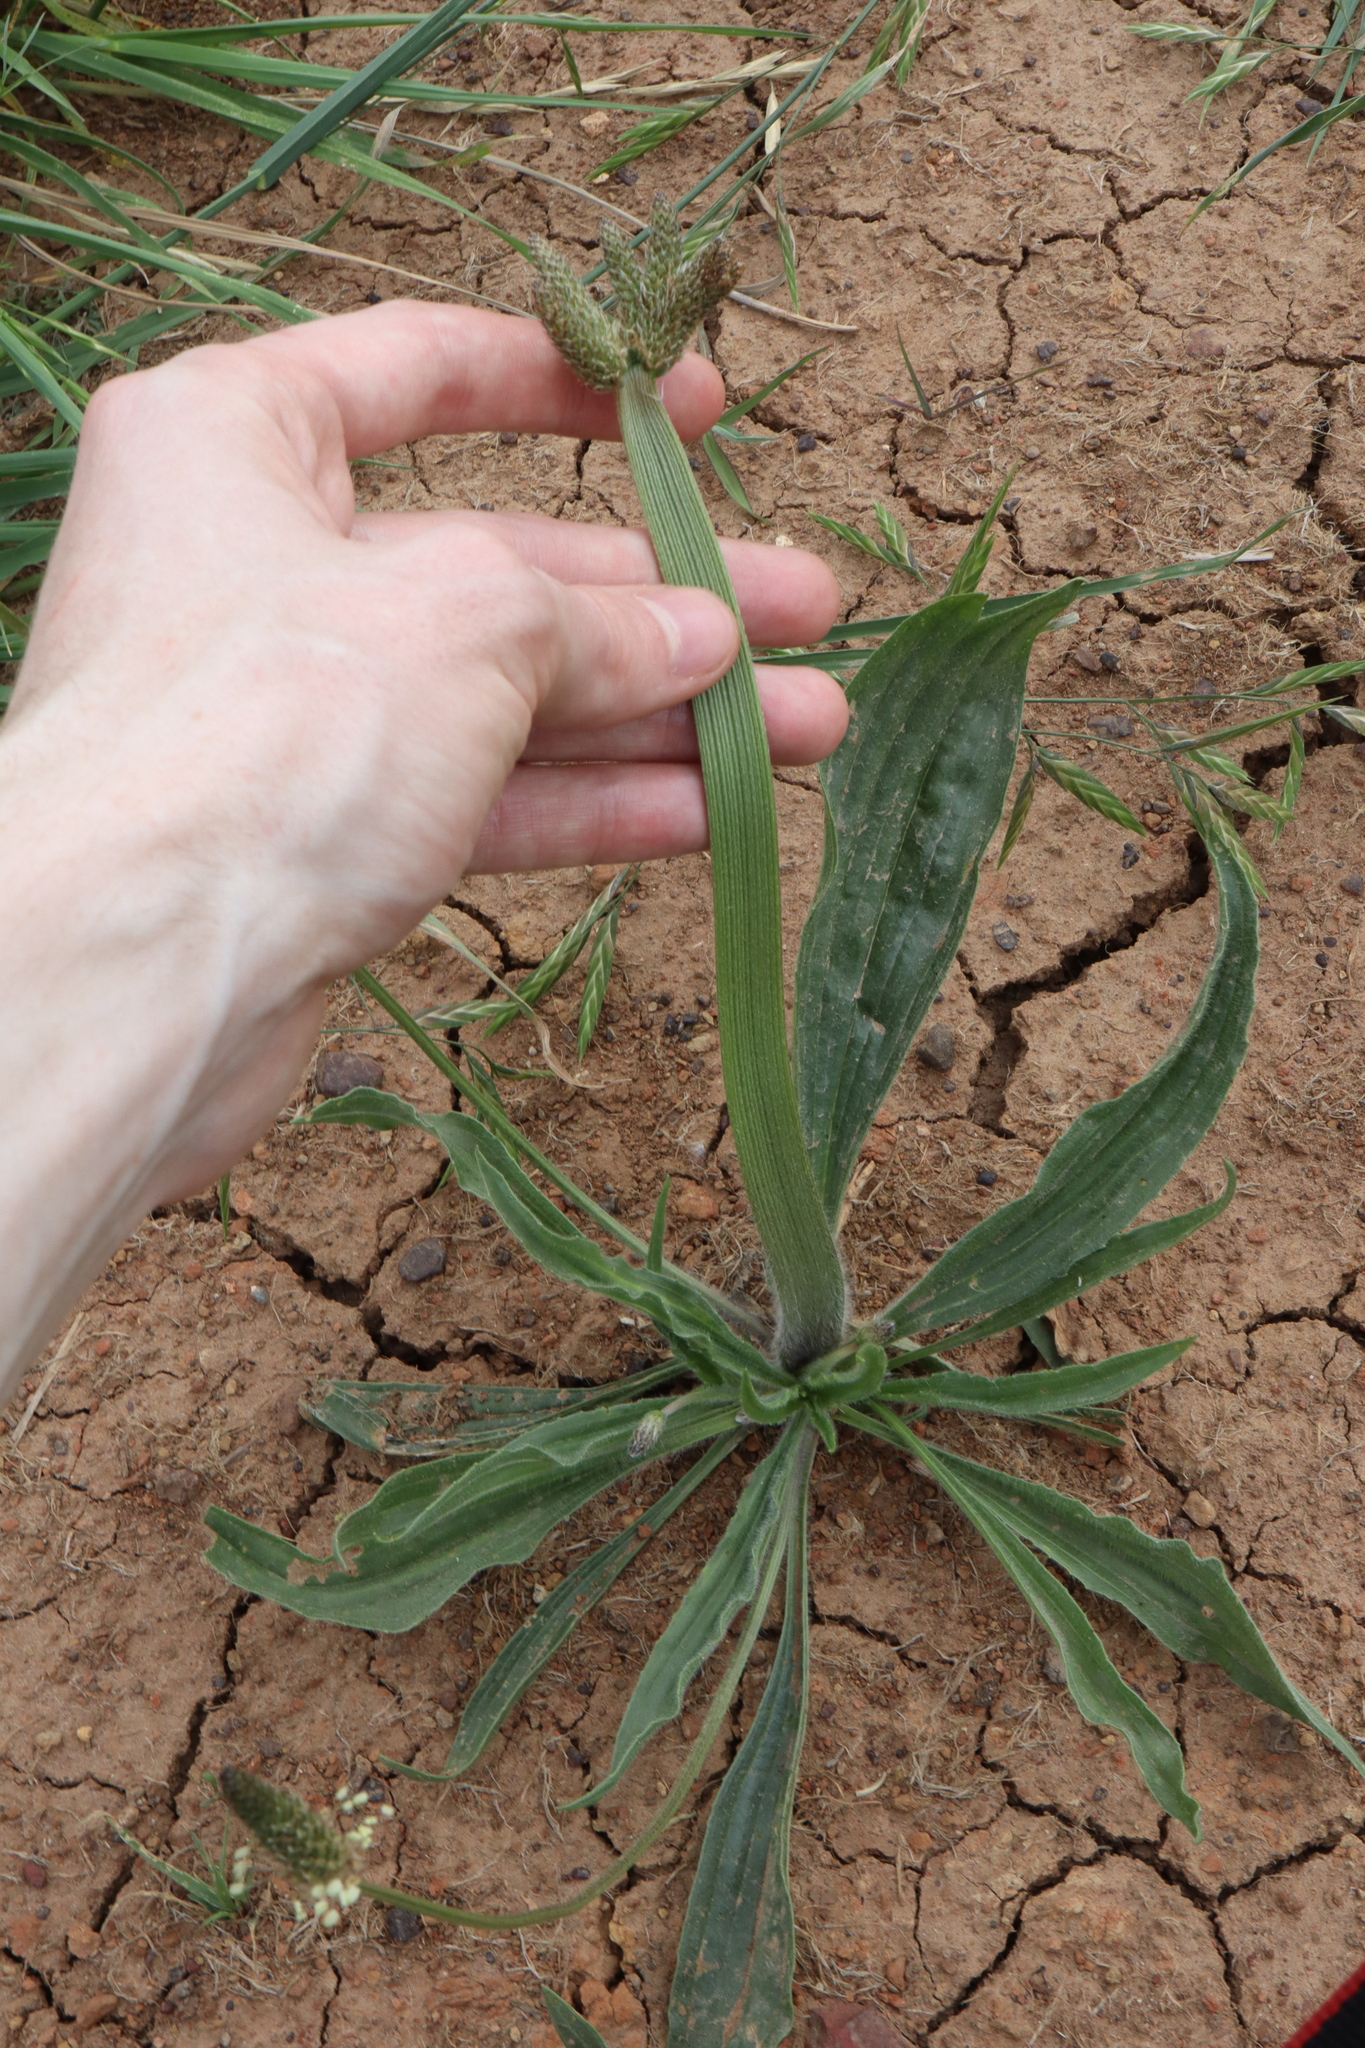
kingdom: Plantae
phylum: Tracheophyta
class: Magnoliopsida
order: Lamiales
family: Plantaginaceae
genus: Plantago
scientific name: Plantago lanceolata
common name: Ribwort plantain
